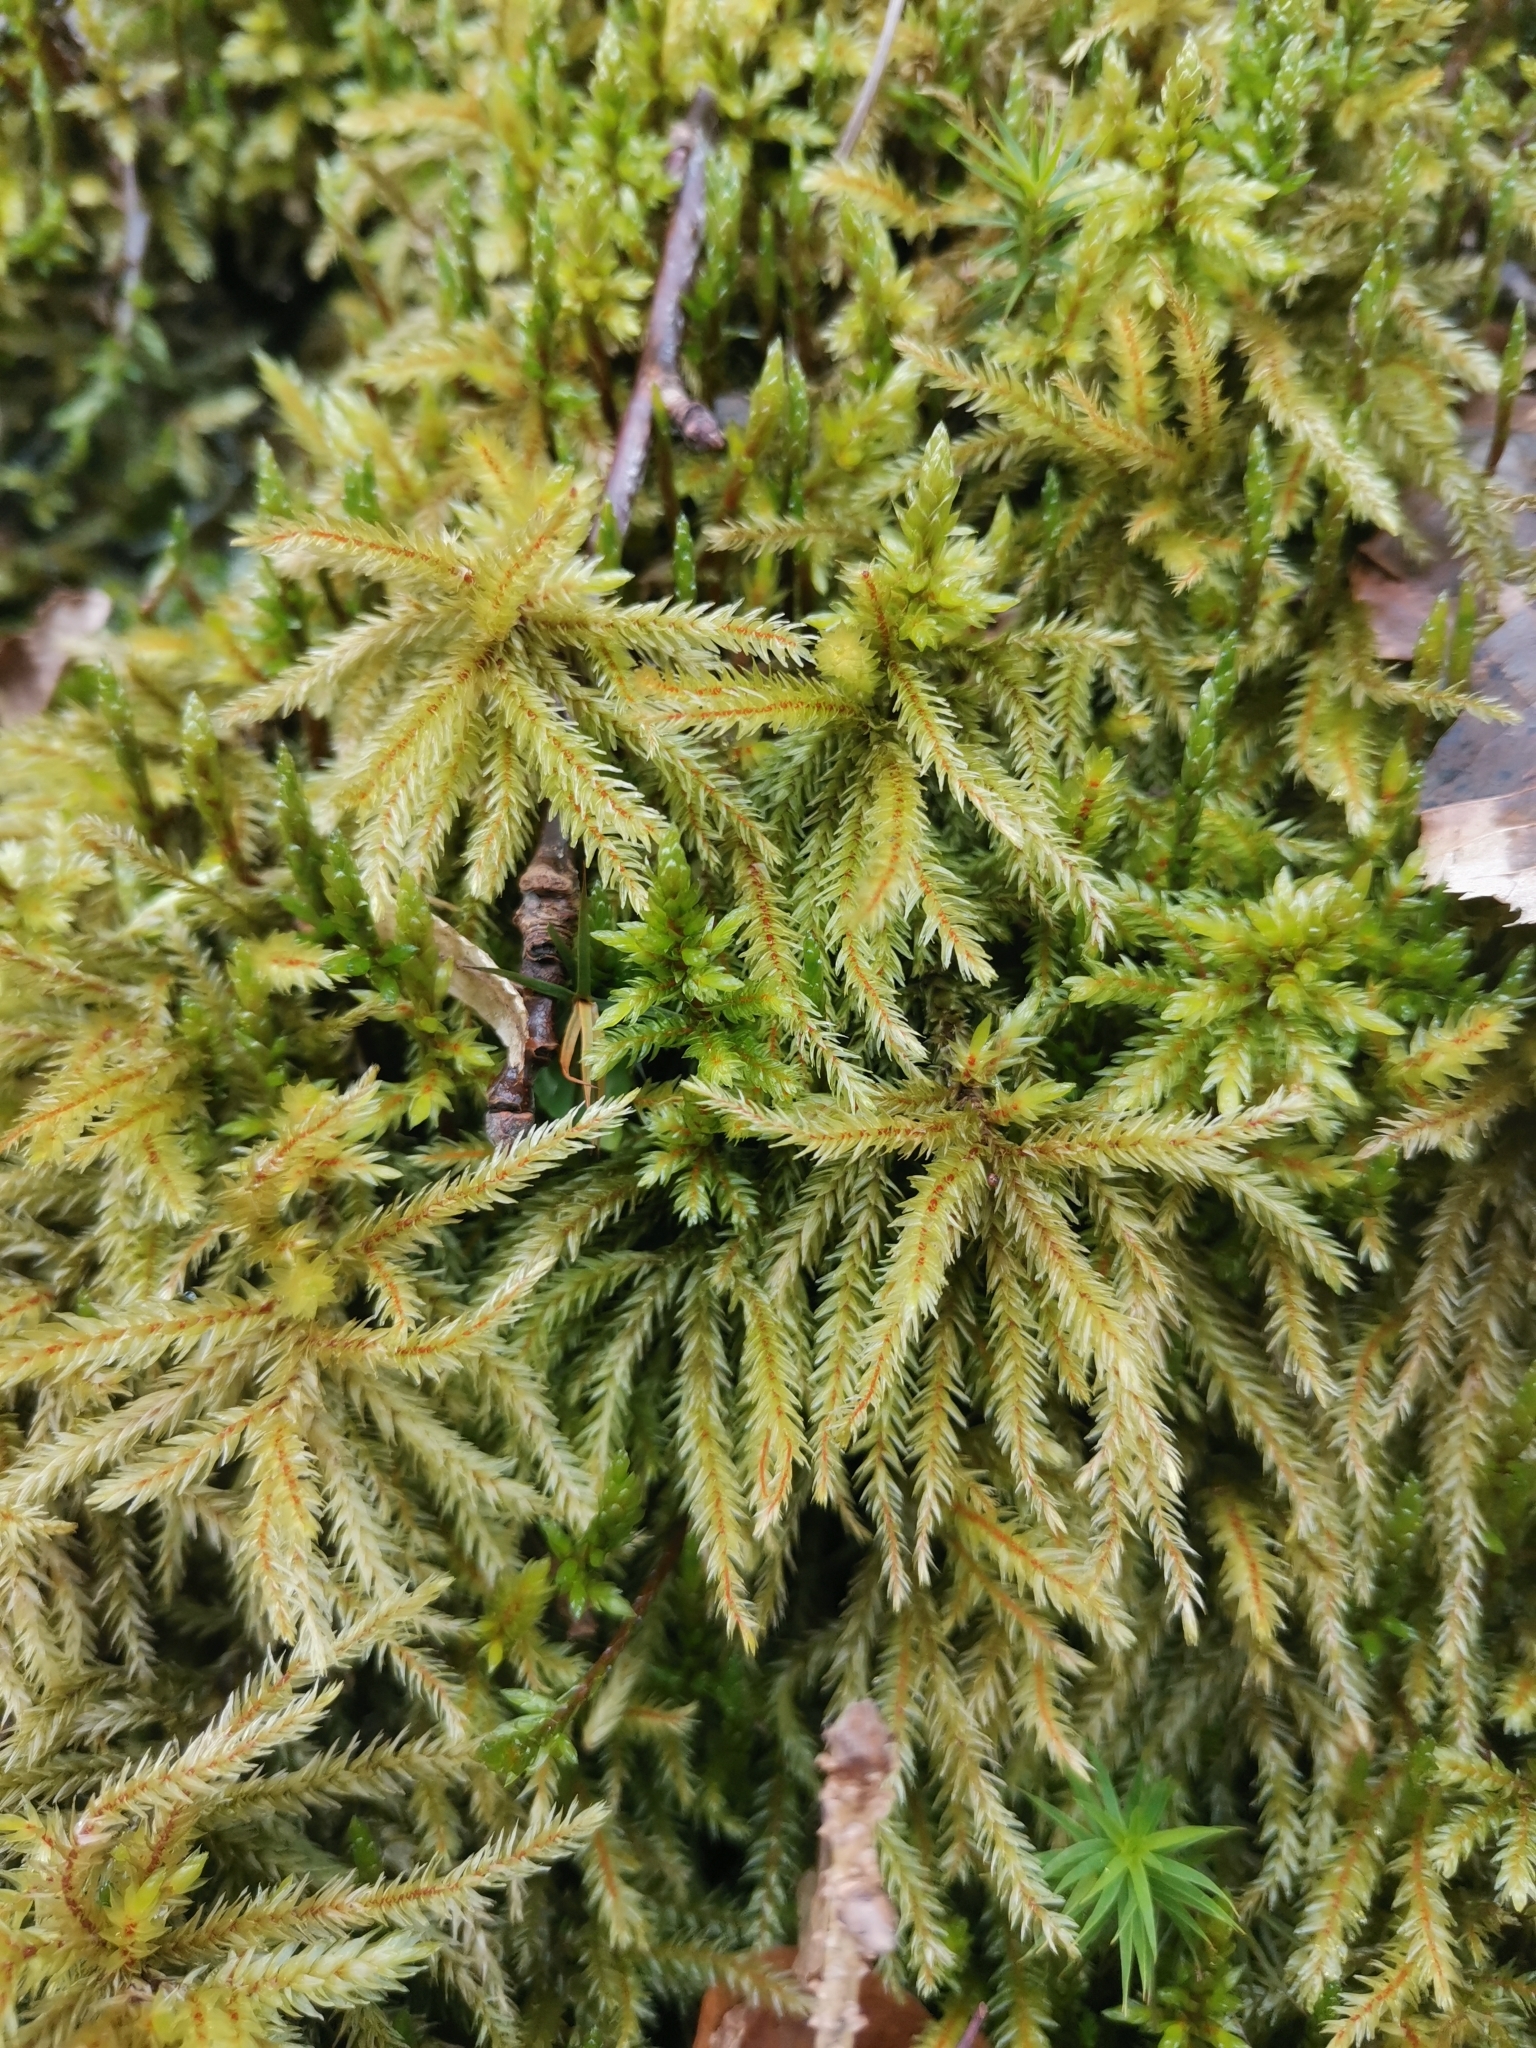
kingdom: Plantae
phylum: Bryophyta
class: Bryopsida
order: Hypnales
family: Climaciaceae
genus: Climacium
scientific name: Climacium dendroides
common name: Northern tree moss
